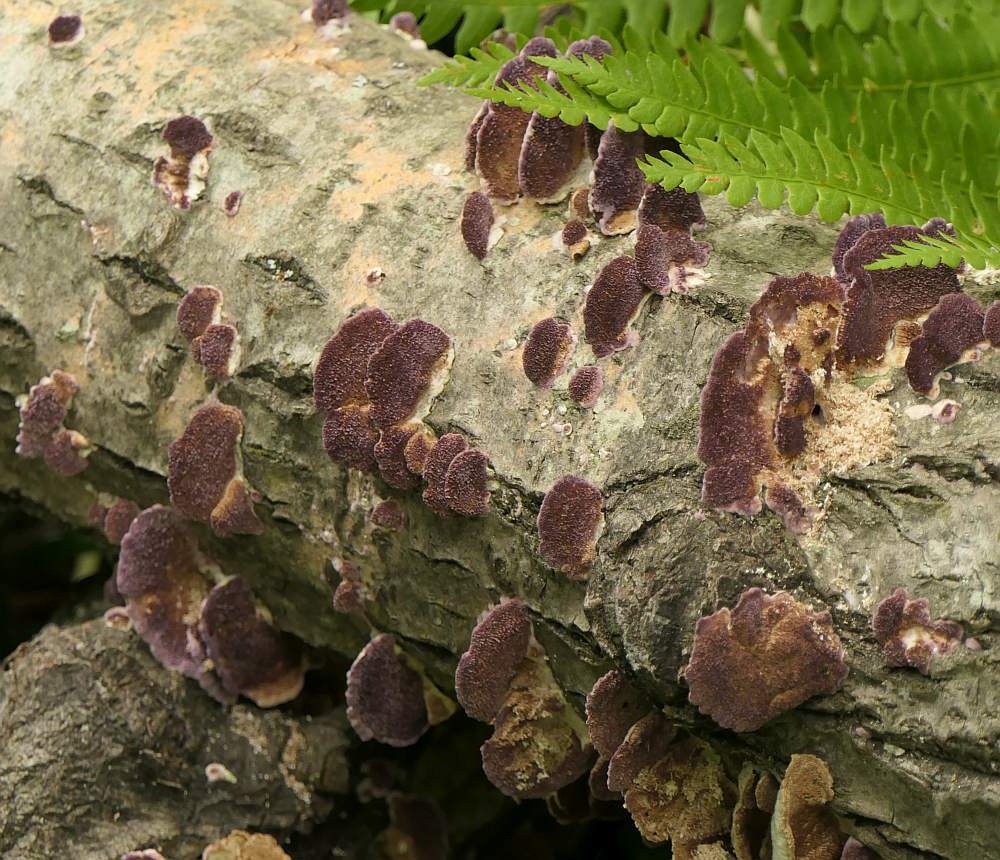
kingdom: Fungi
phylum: Basidiomycota
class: Agaricomycetes
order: Hymenochaetales
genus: Trichaptum
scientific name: Trichaptum biforme
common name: Violet-toothed polypore
